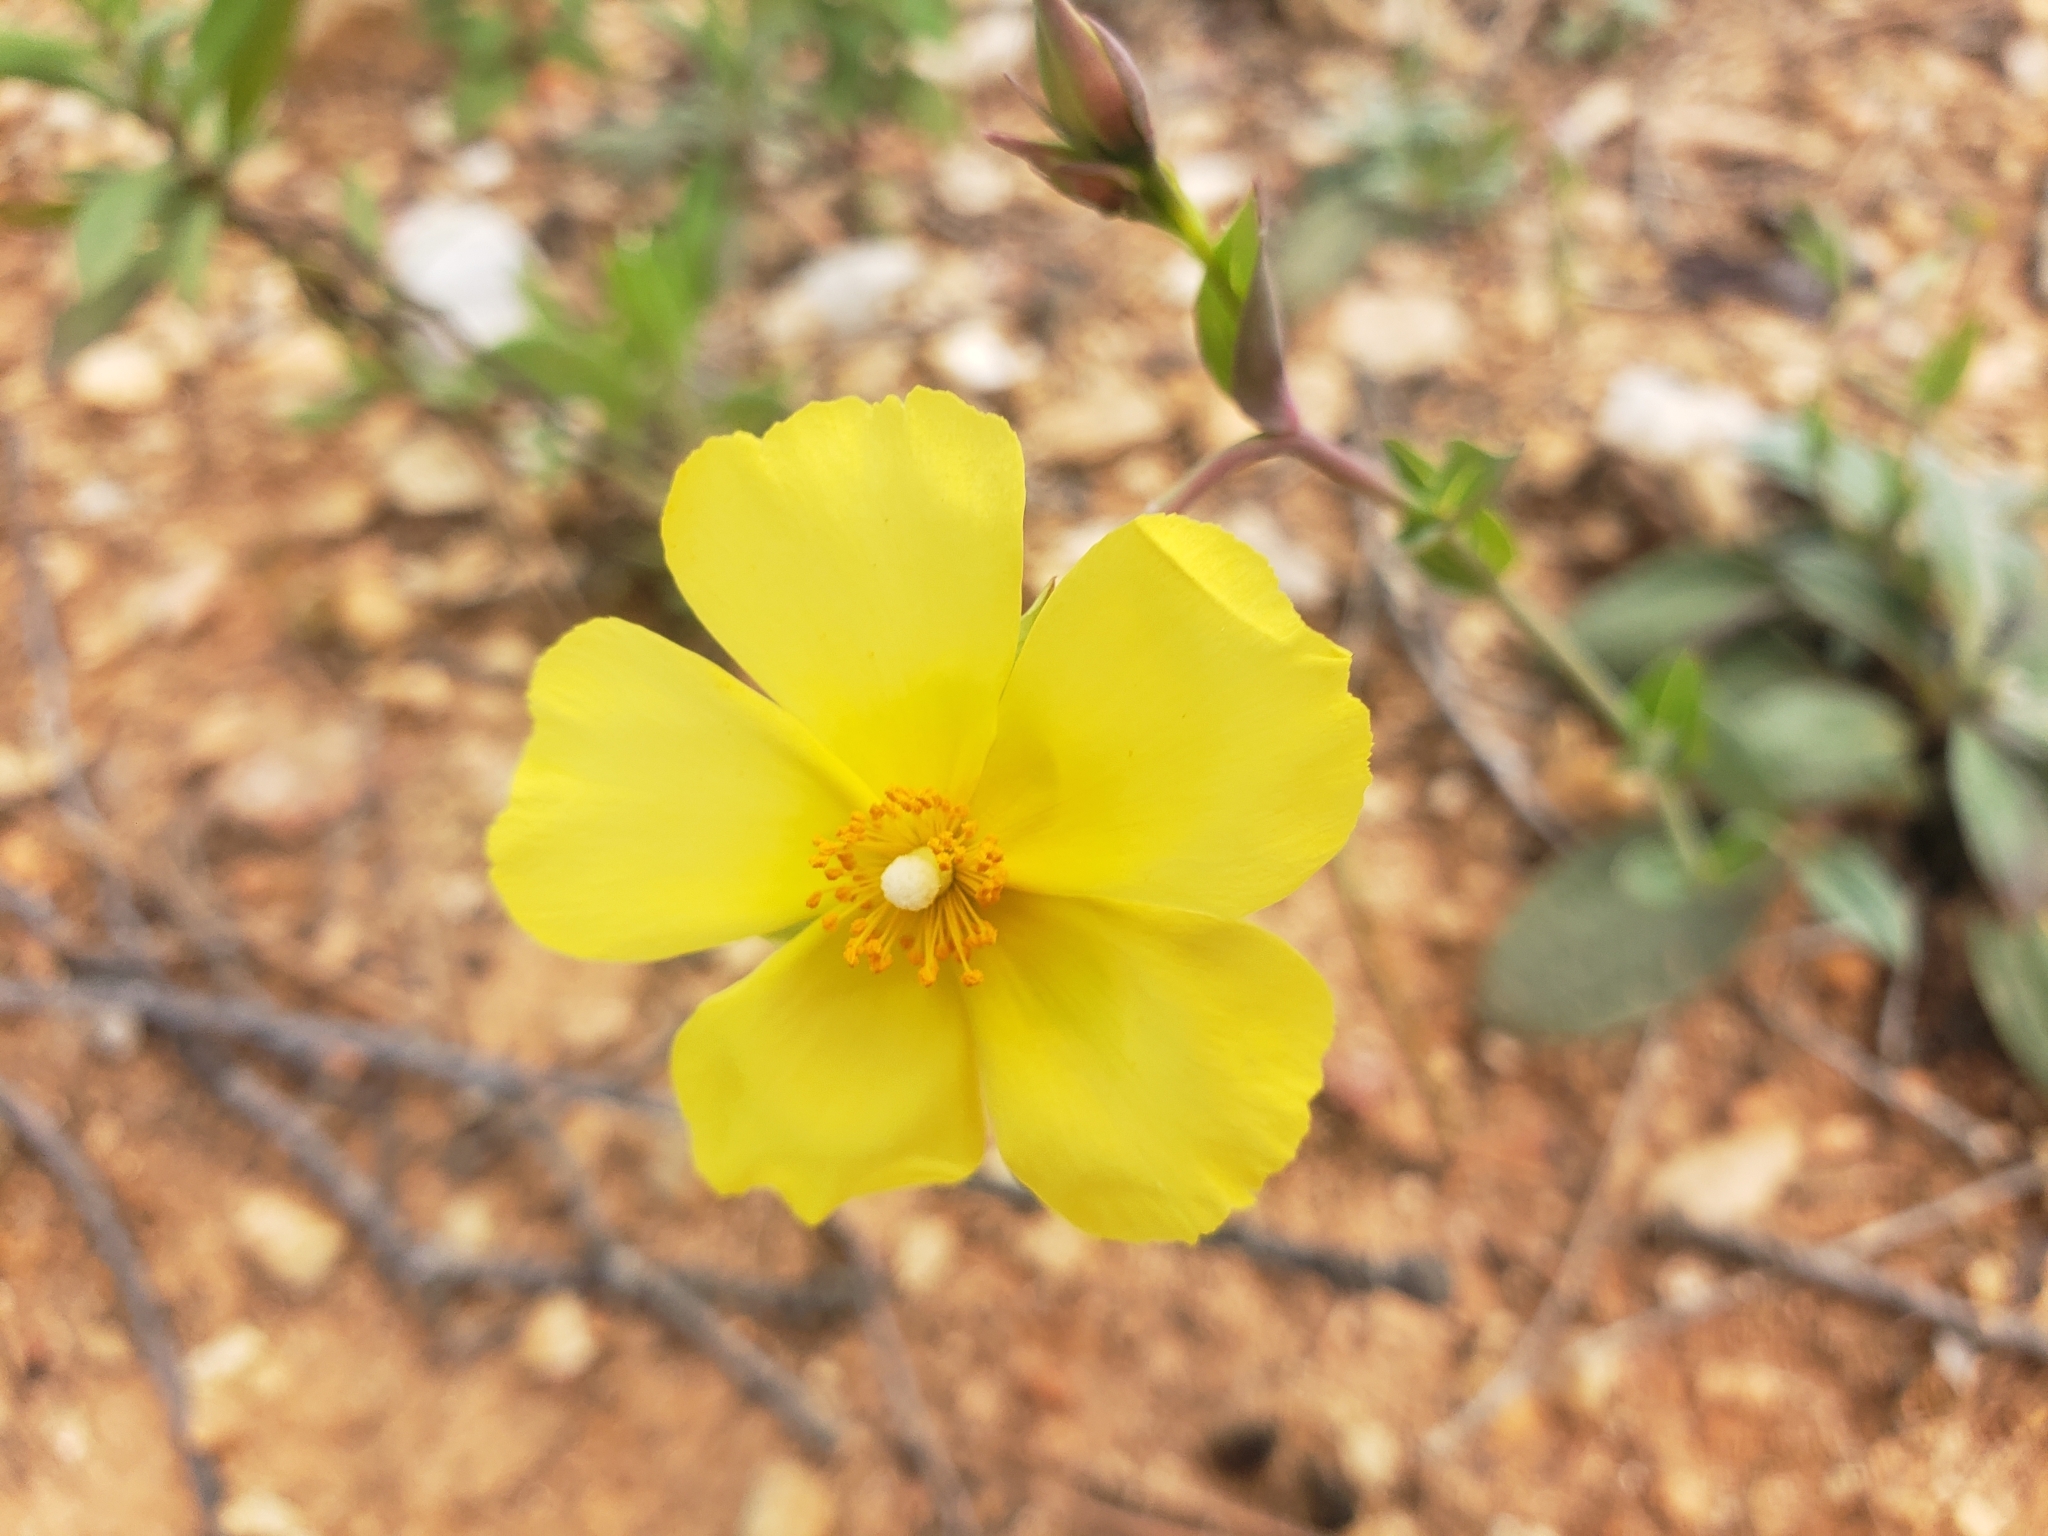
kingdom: Plantae
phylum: Tracheophyta
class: Magnoliopsida
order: Malvales
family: Cistaceae
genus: Tuberaria
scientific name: Tuberaria lignosa
